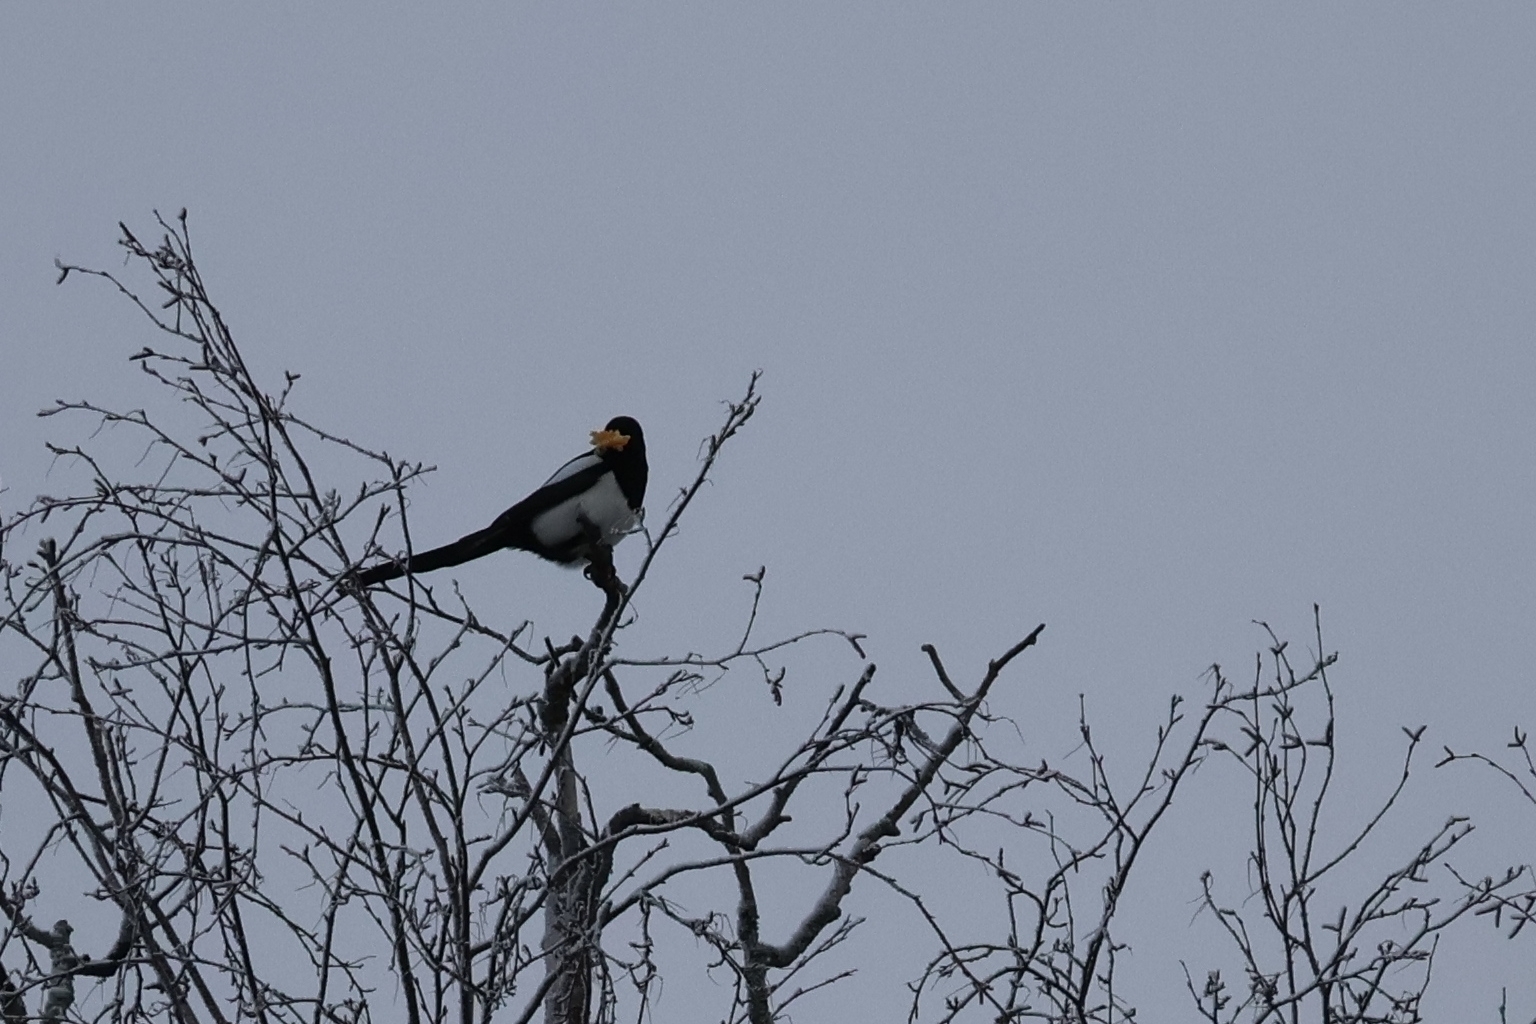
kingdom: Animalia
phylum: Chordata
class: Aves
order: Passeriformes
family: Corvidae
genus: Pica
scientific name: Pica pica
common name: Eurasian magpie
